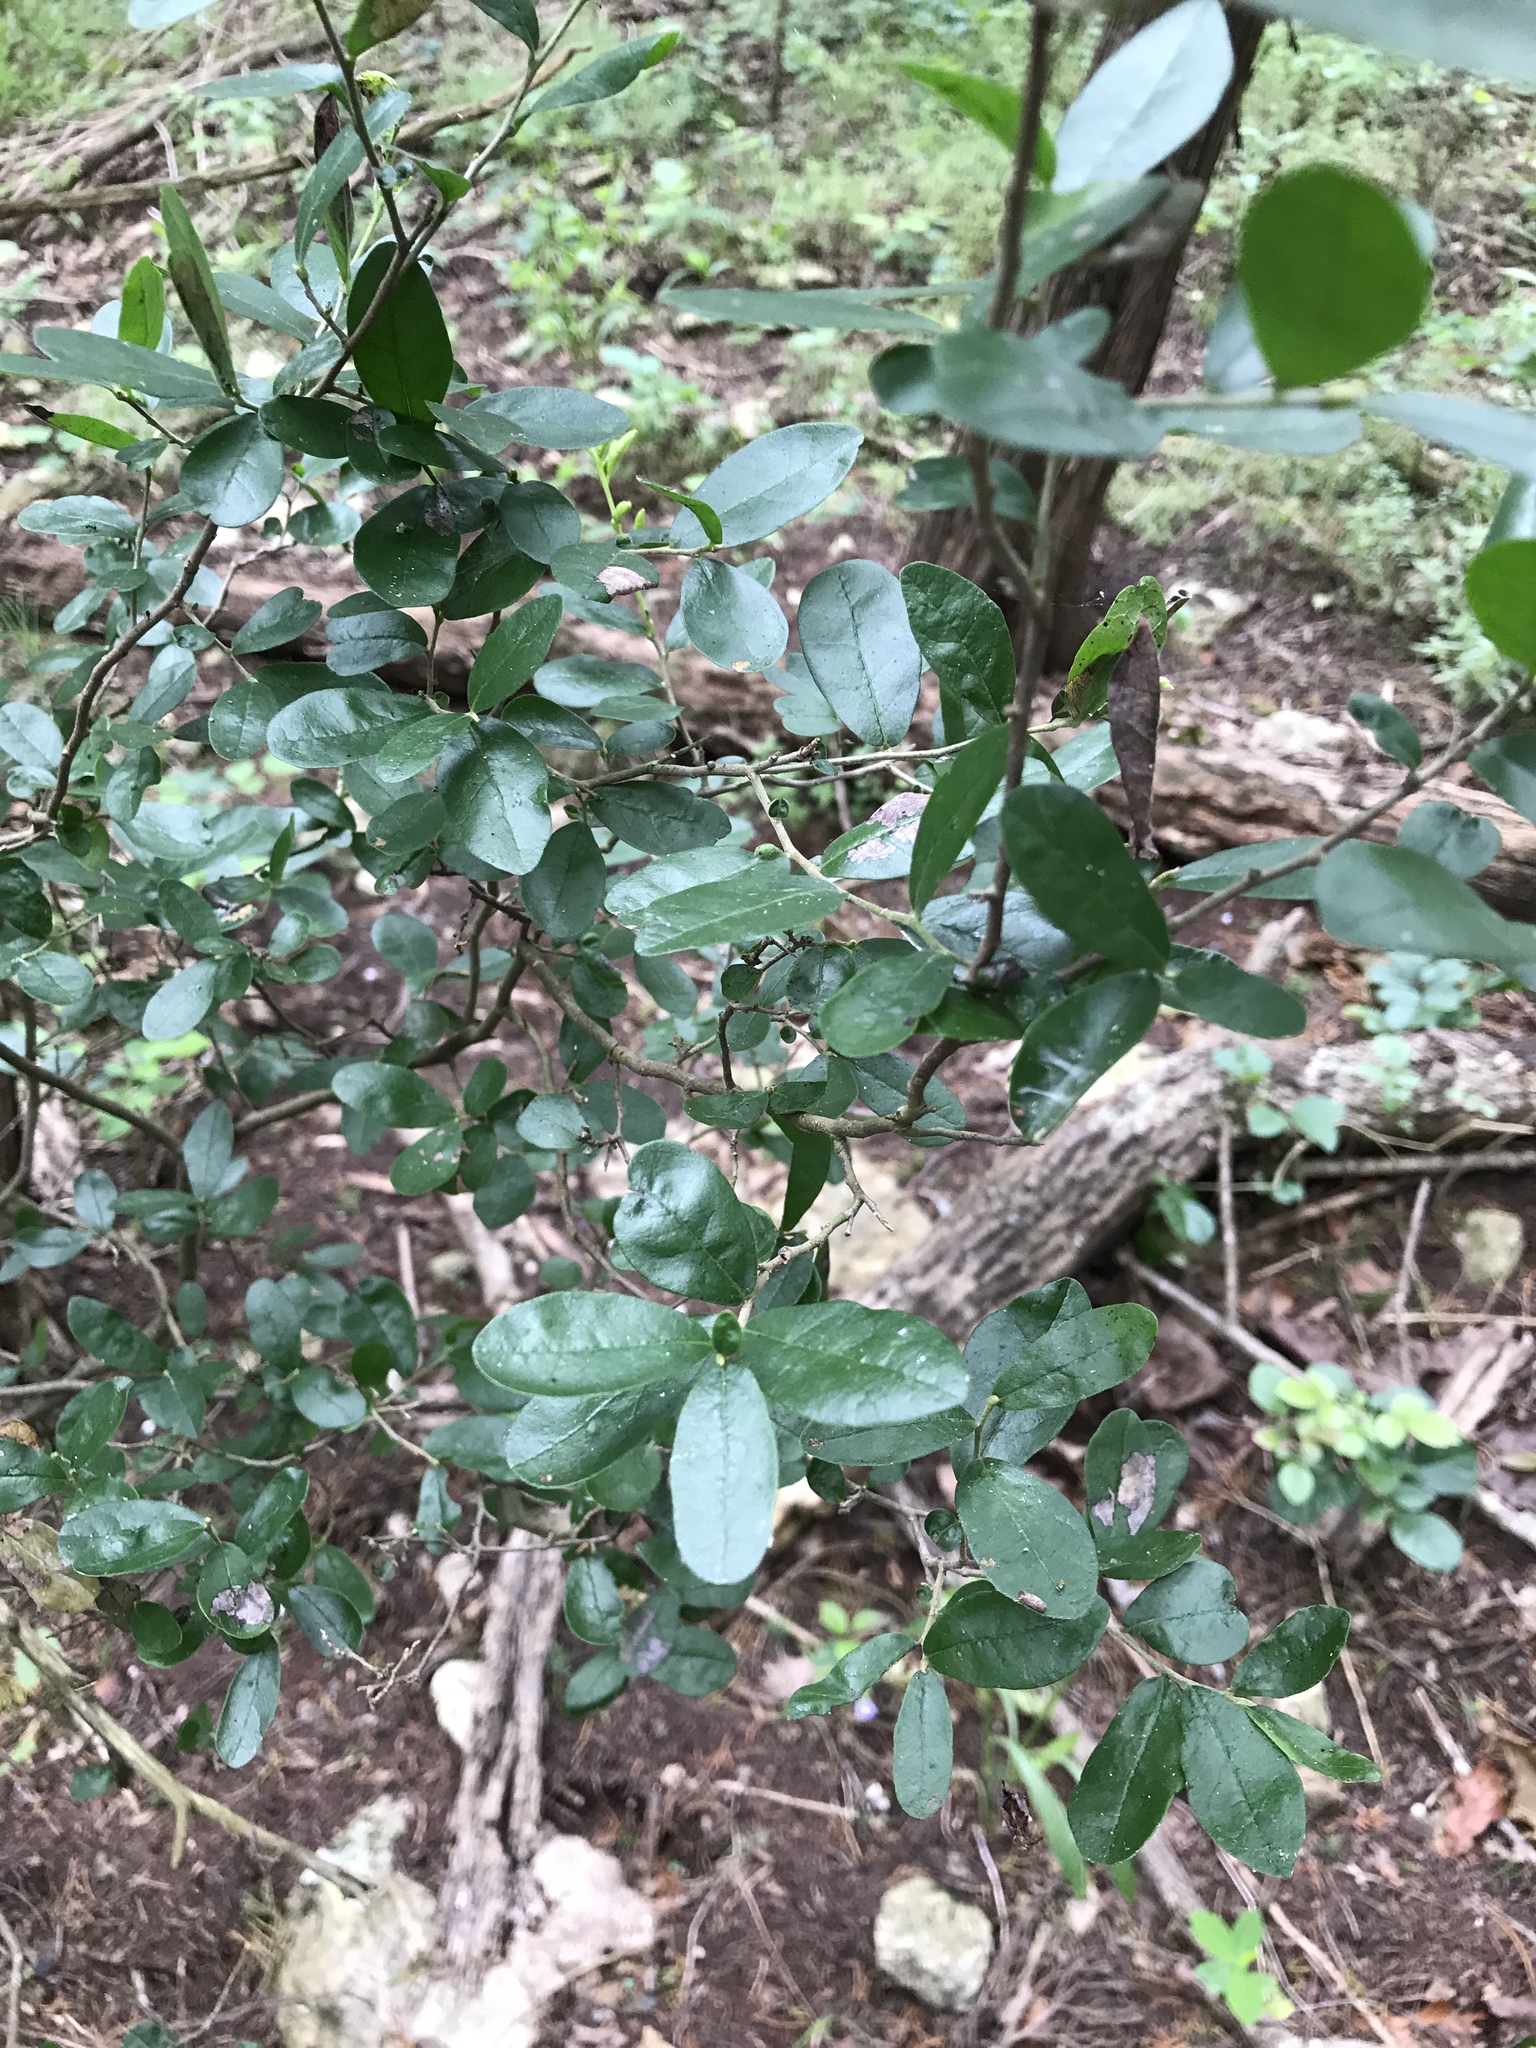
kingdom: Plantae
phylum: Tracheophyta
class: Magnoliopsida
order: Ericales
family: Ebenaceae
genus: Diospyros
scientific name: Diospyros texana
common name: Texas persimmon
